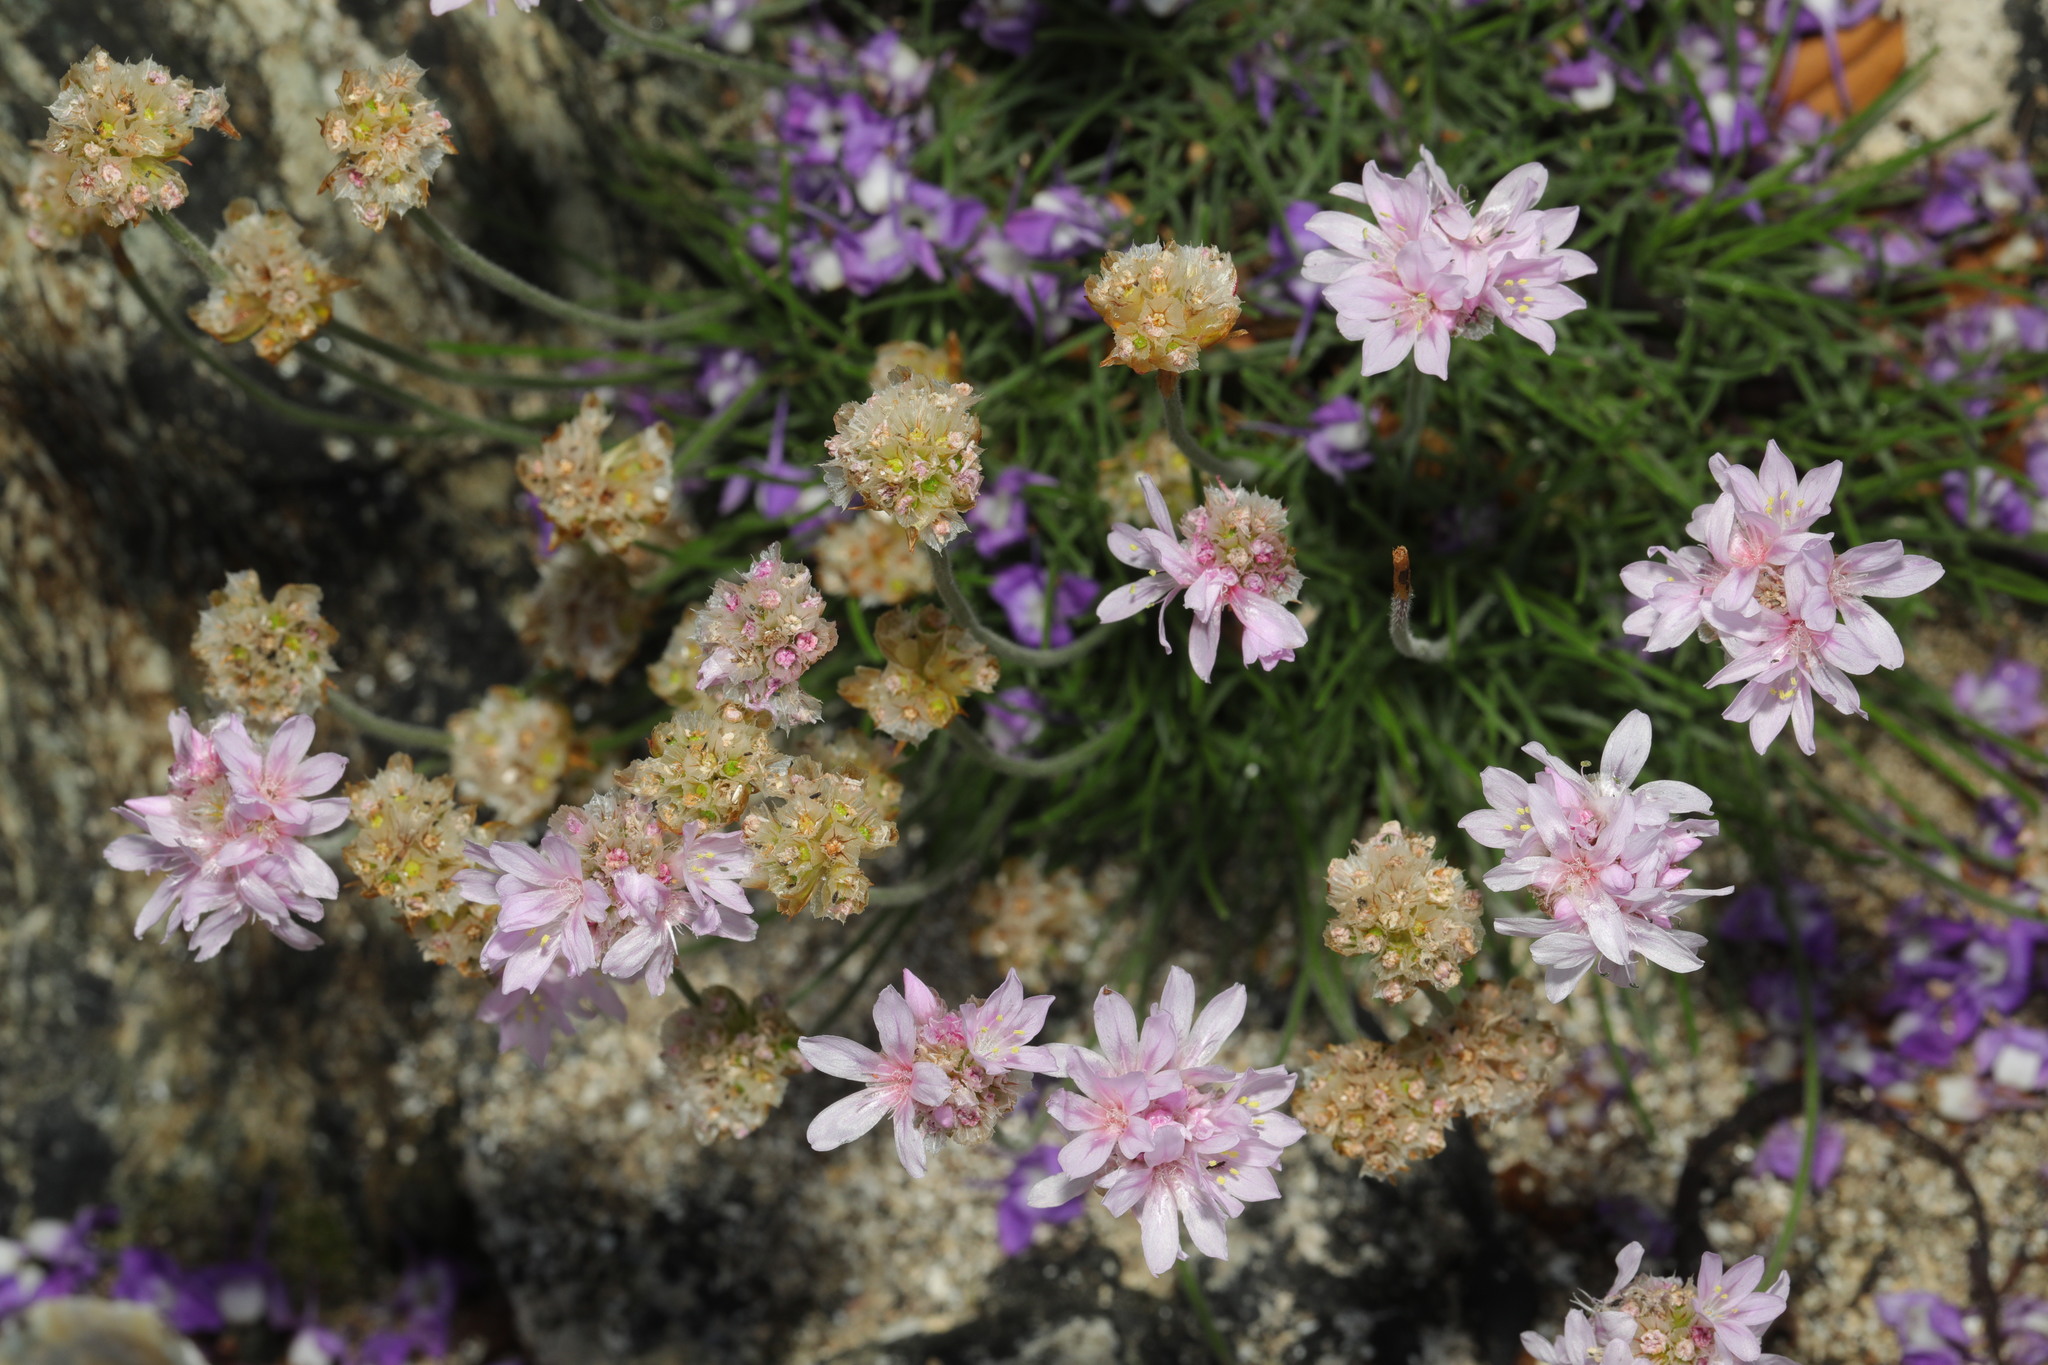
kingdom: Plantae
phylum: Tracheophyta
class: Magnoliopsida
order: Caryophyllales
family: Plumbaginaceae
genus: Armeria
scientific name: Armeria maritima
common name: Thrift
